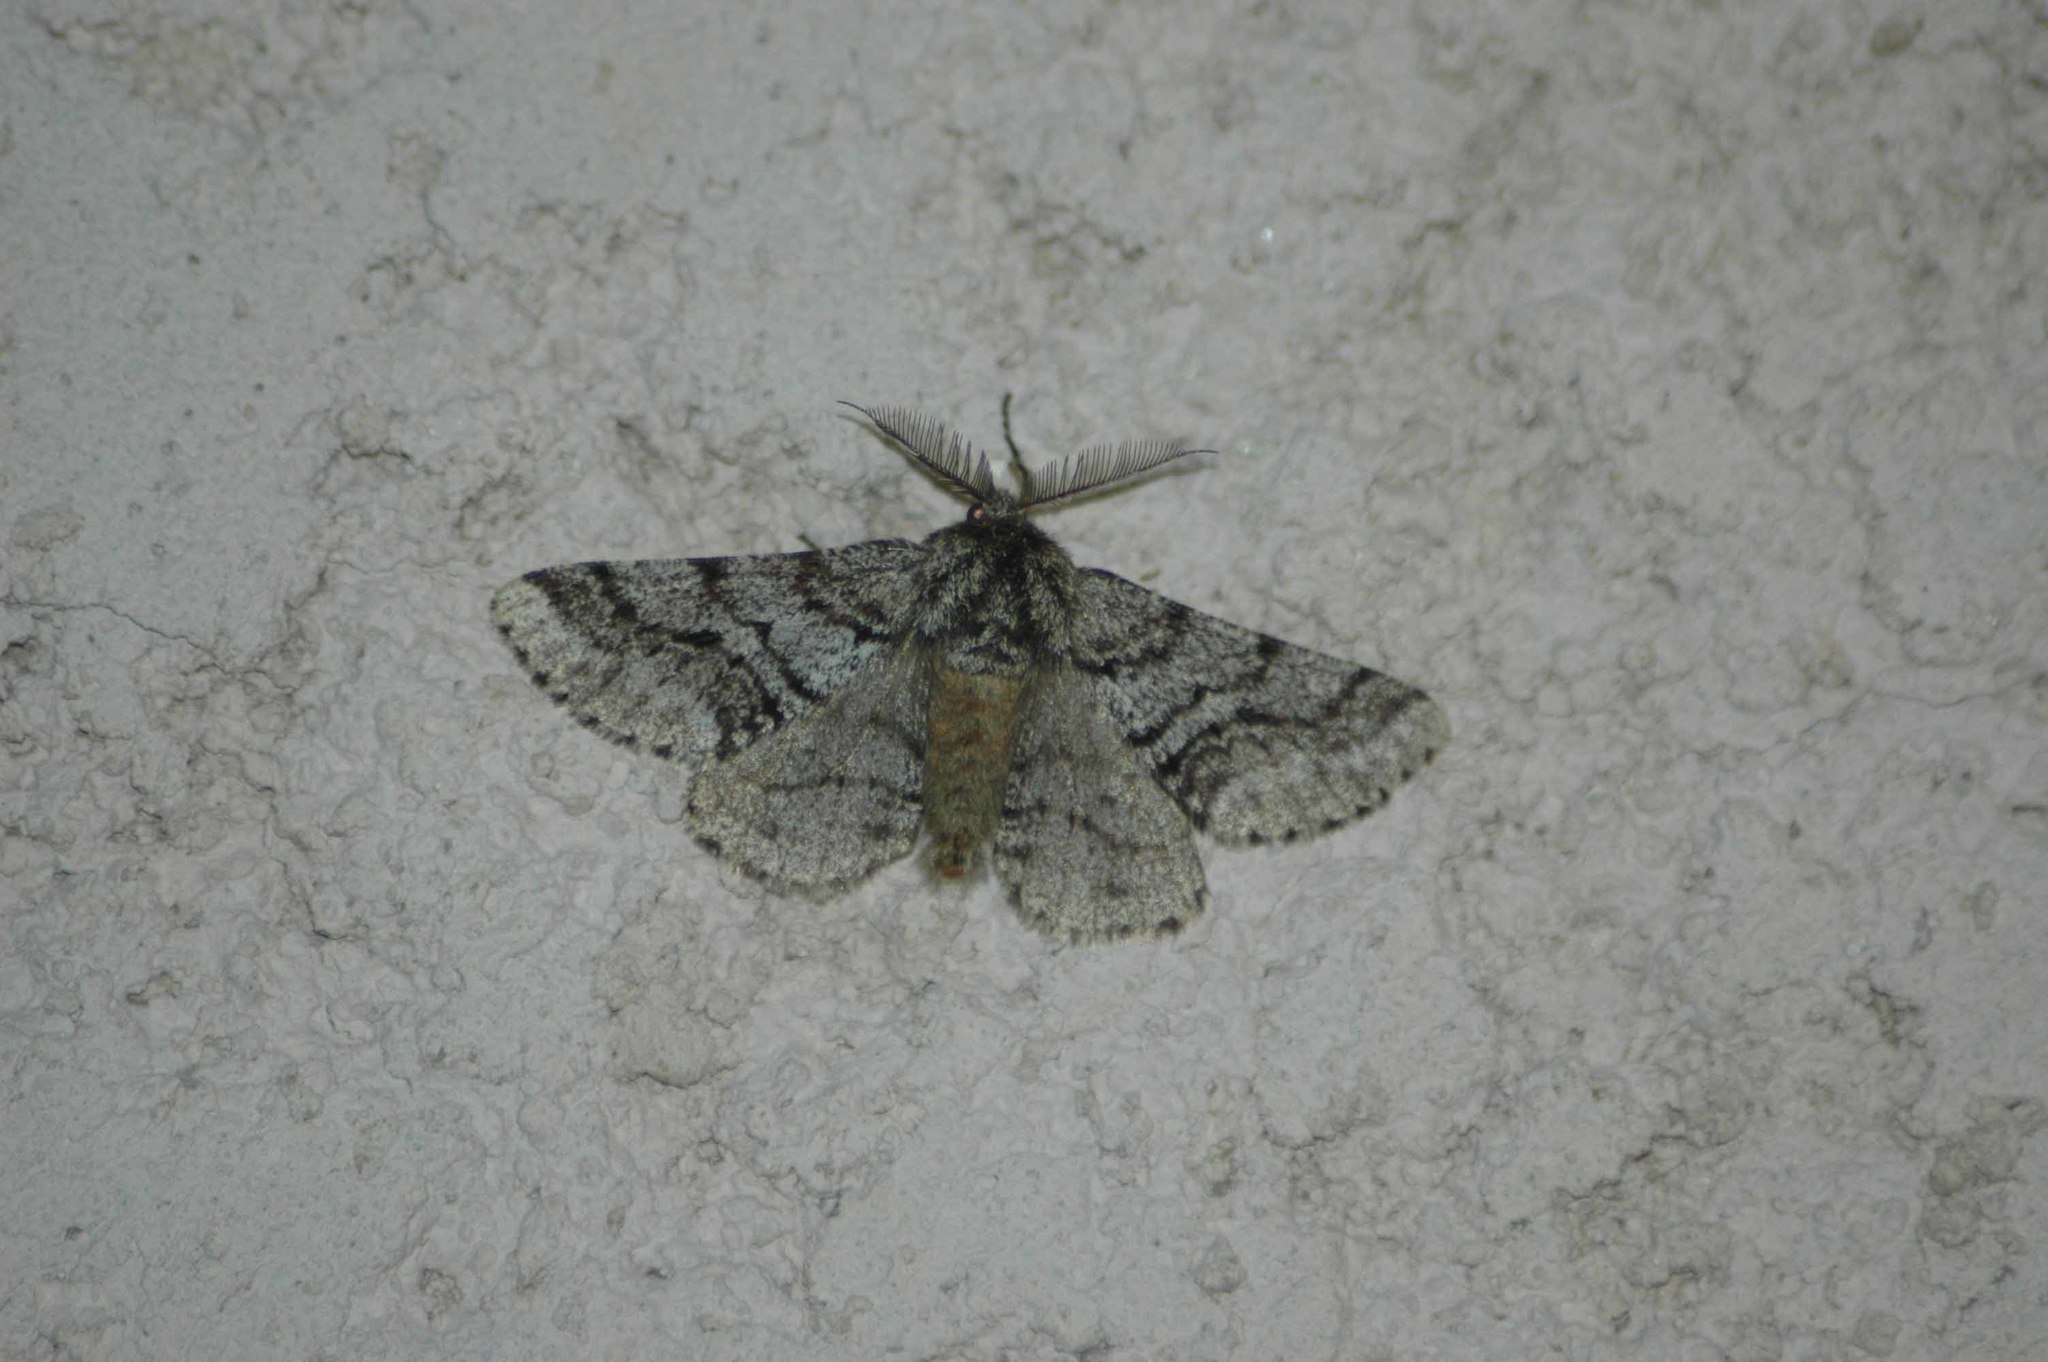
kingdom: Animalia
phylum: Arthropoda
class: Insecta
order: Lepidoptera
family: Geometridae
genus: Lycia
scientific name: Lycia hirtaria
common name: Brindled beauty
